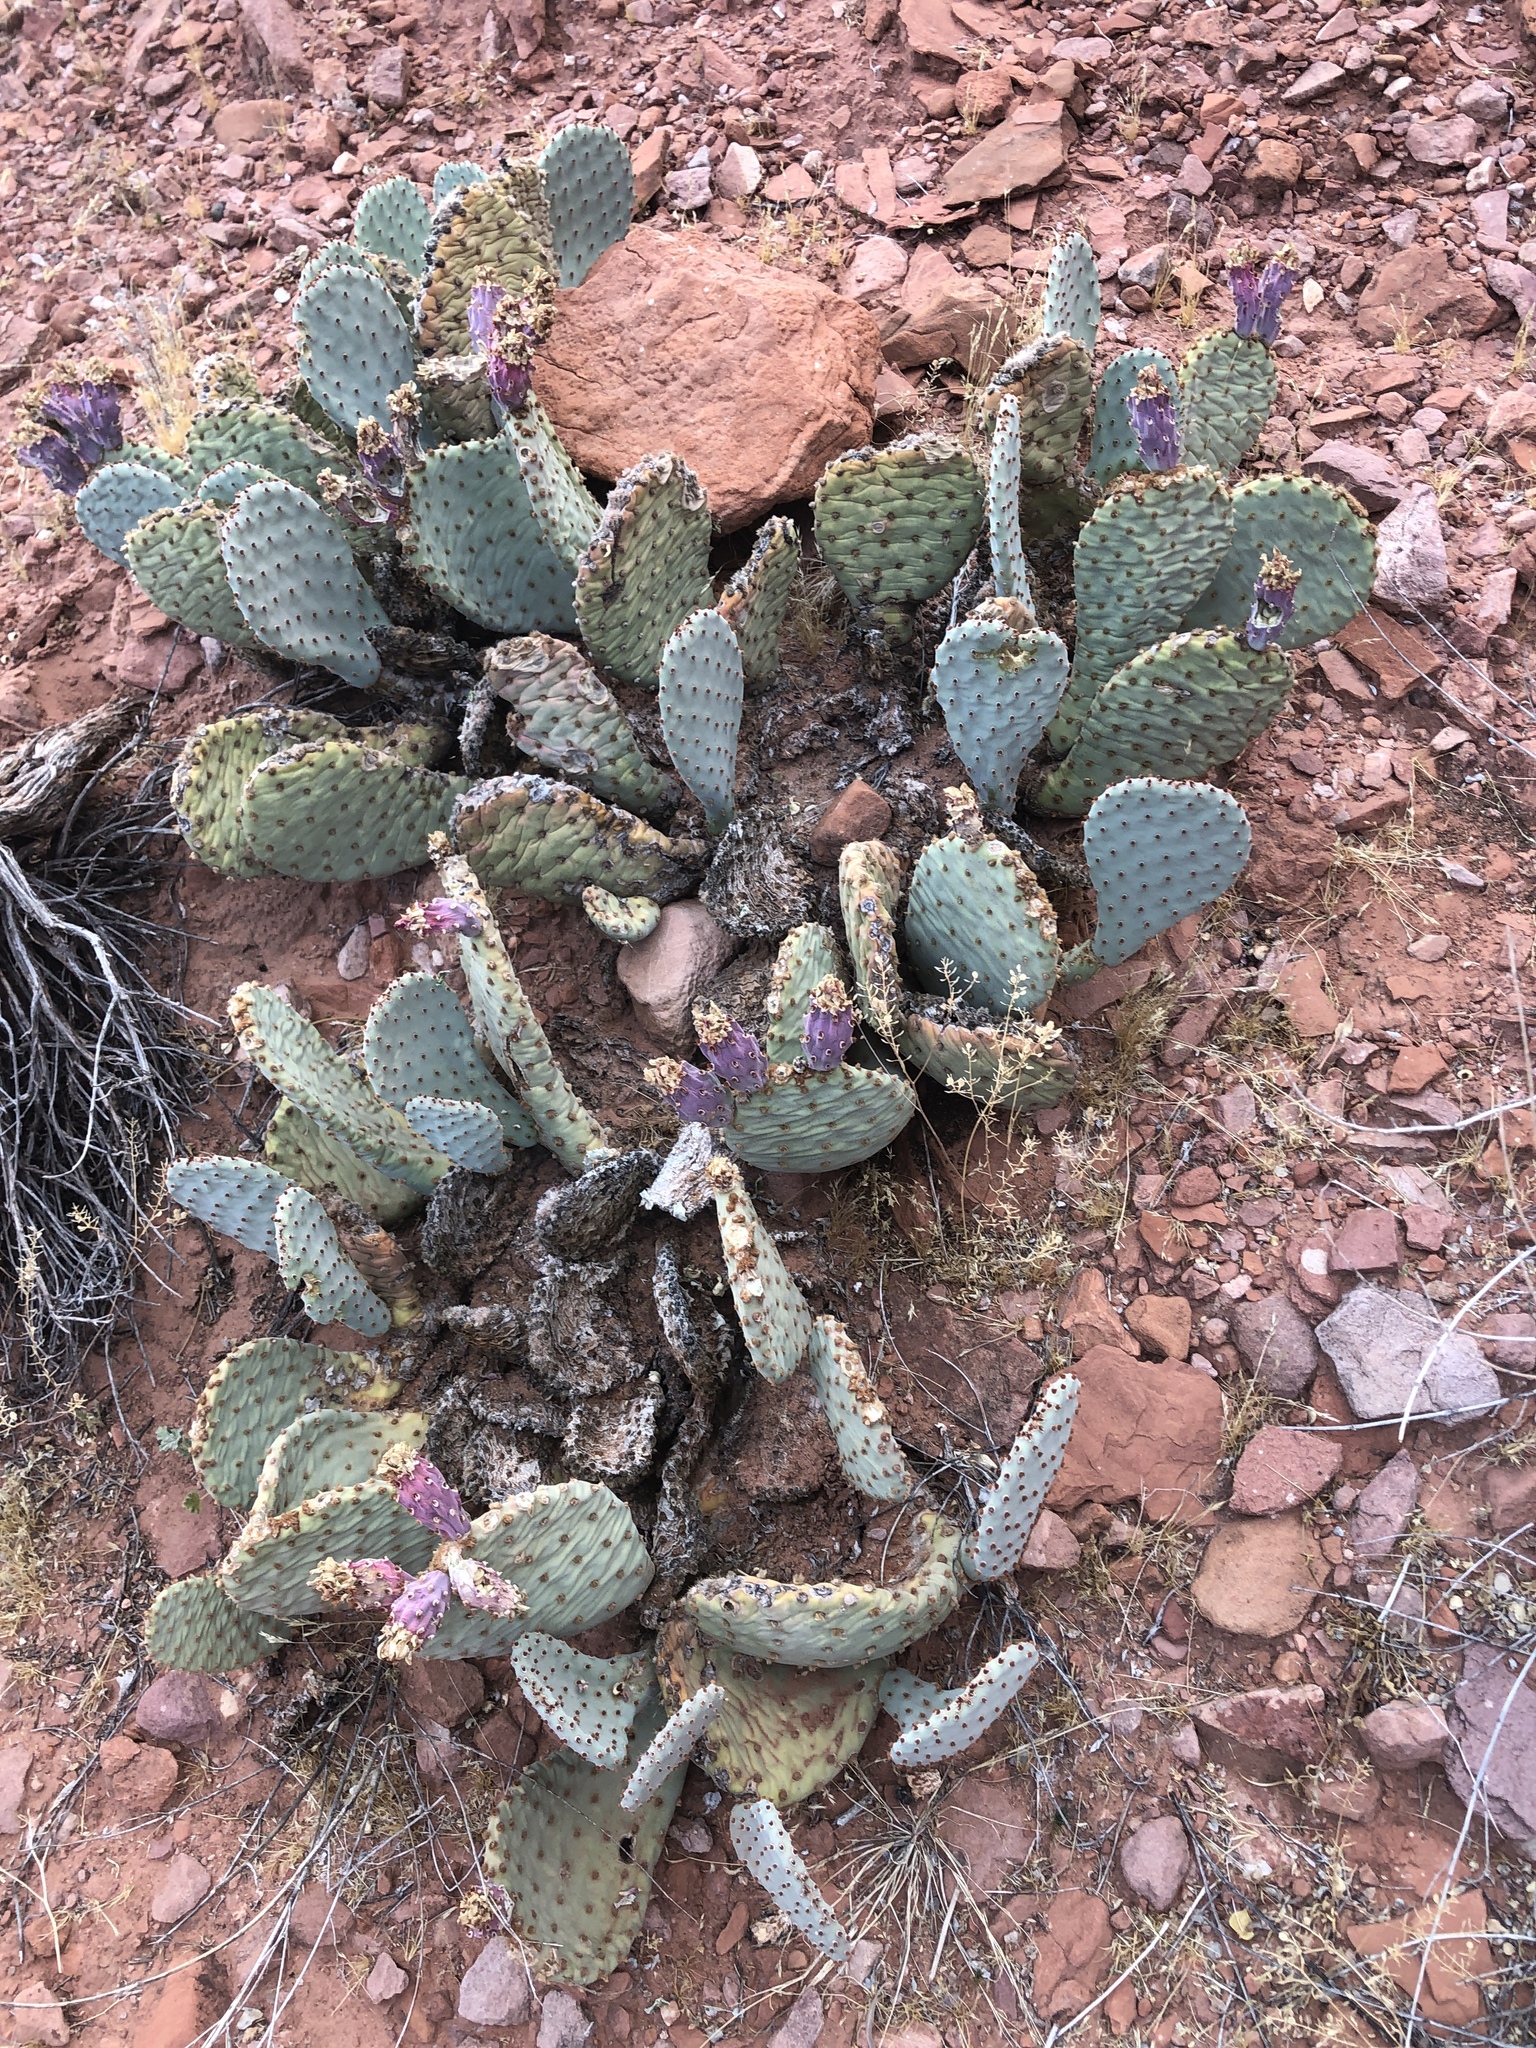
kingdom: Plantae
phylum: Tracheophyta
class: Magnoliopsida
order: Caryophyllales
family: Cactaceae
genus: Opuntia
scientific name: Opuntia basilaris
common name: Beavertail prickly-pear
